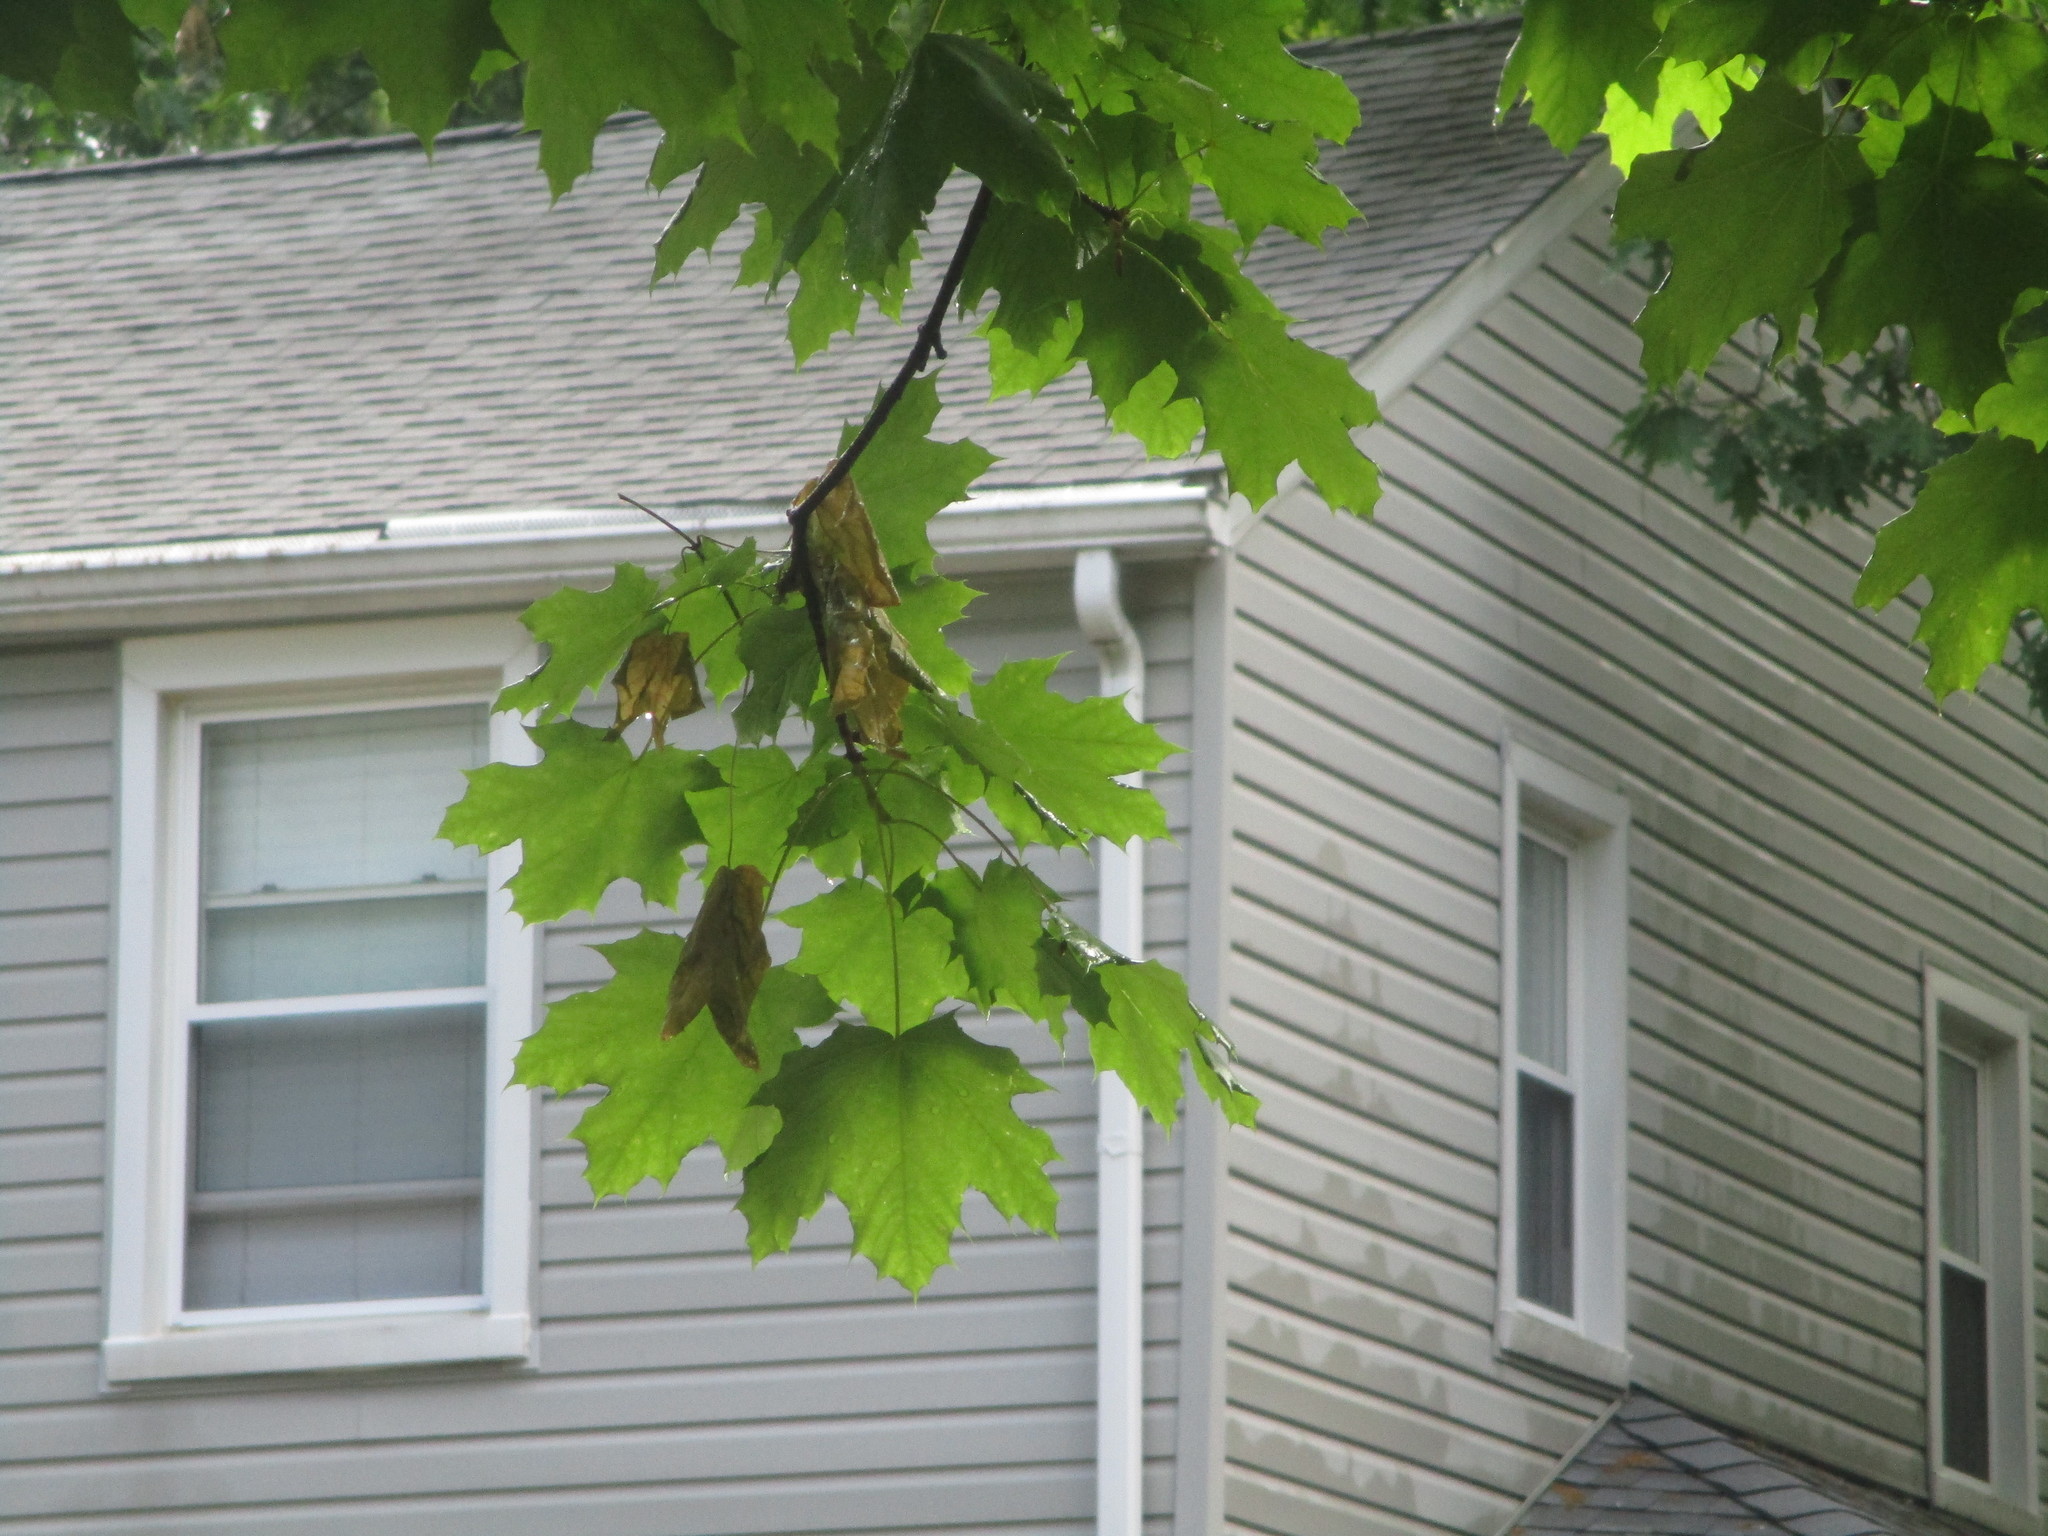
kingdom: Plantae
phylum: Tracheophyta
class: Magnoliopsida
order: Sapindales
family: Sapindaceae
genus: Acer
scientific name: Acer platanoides
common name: Norway maple
